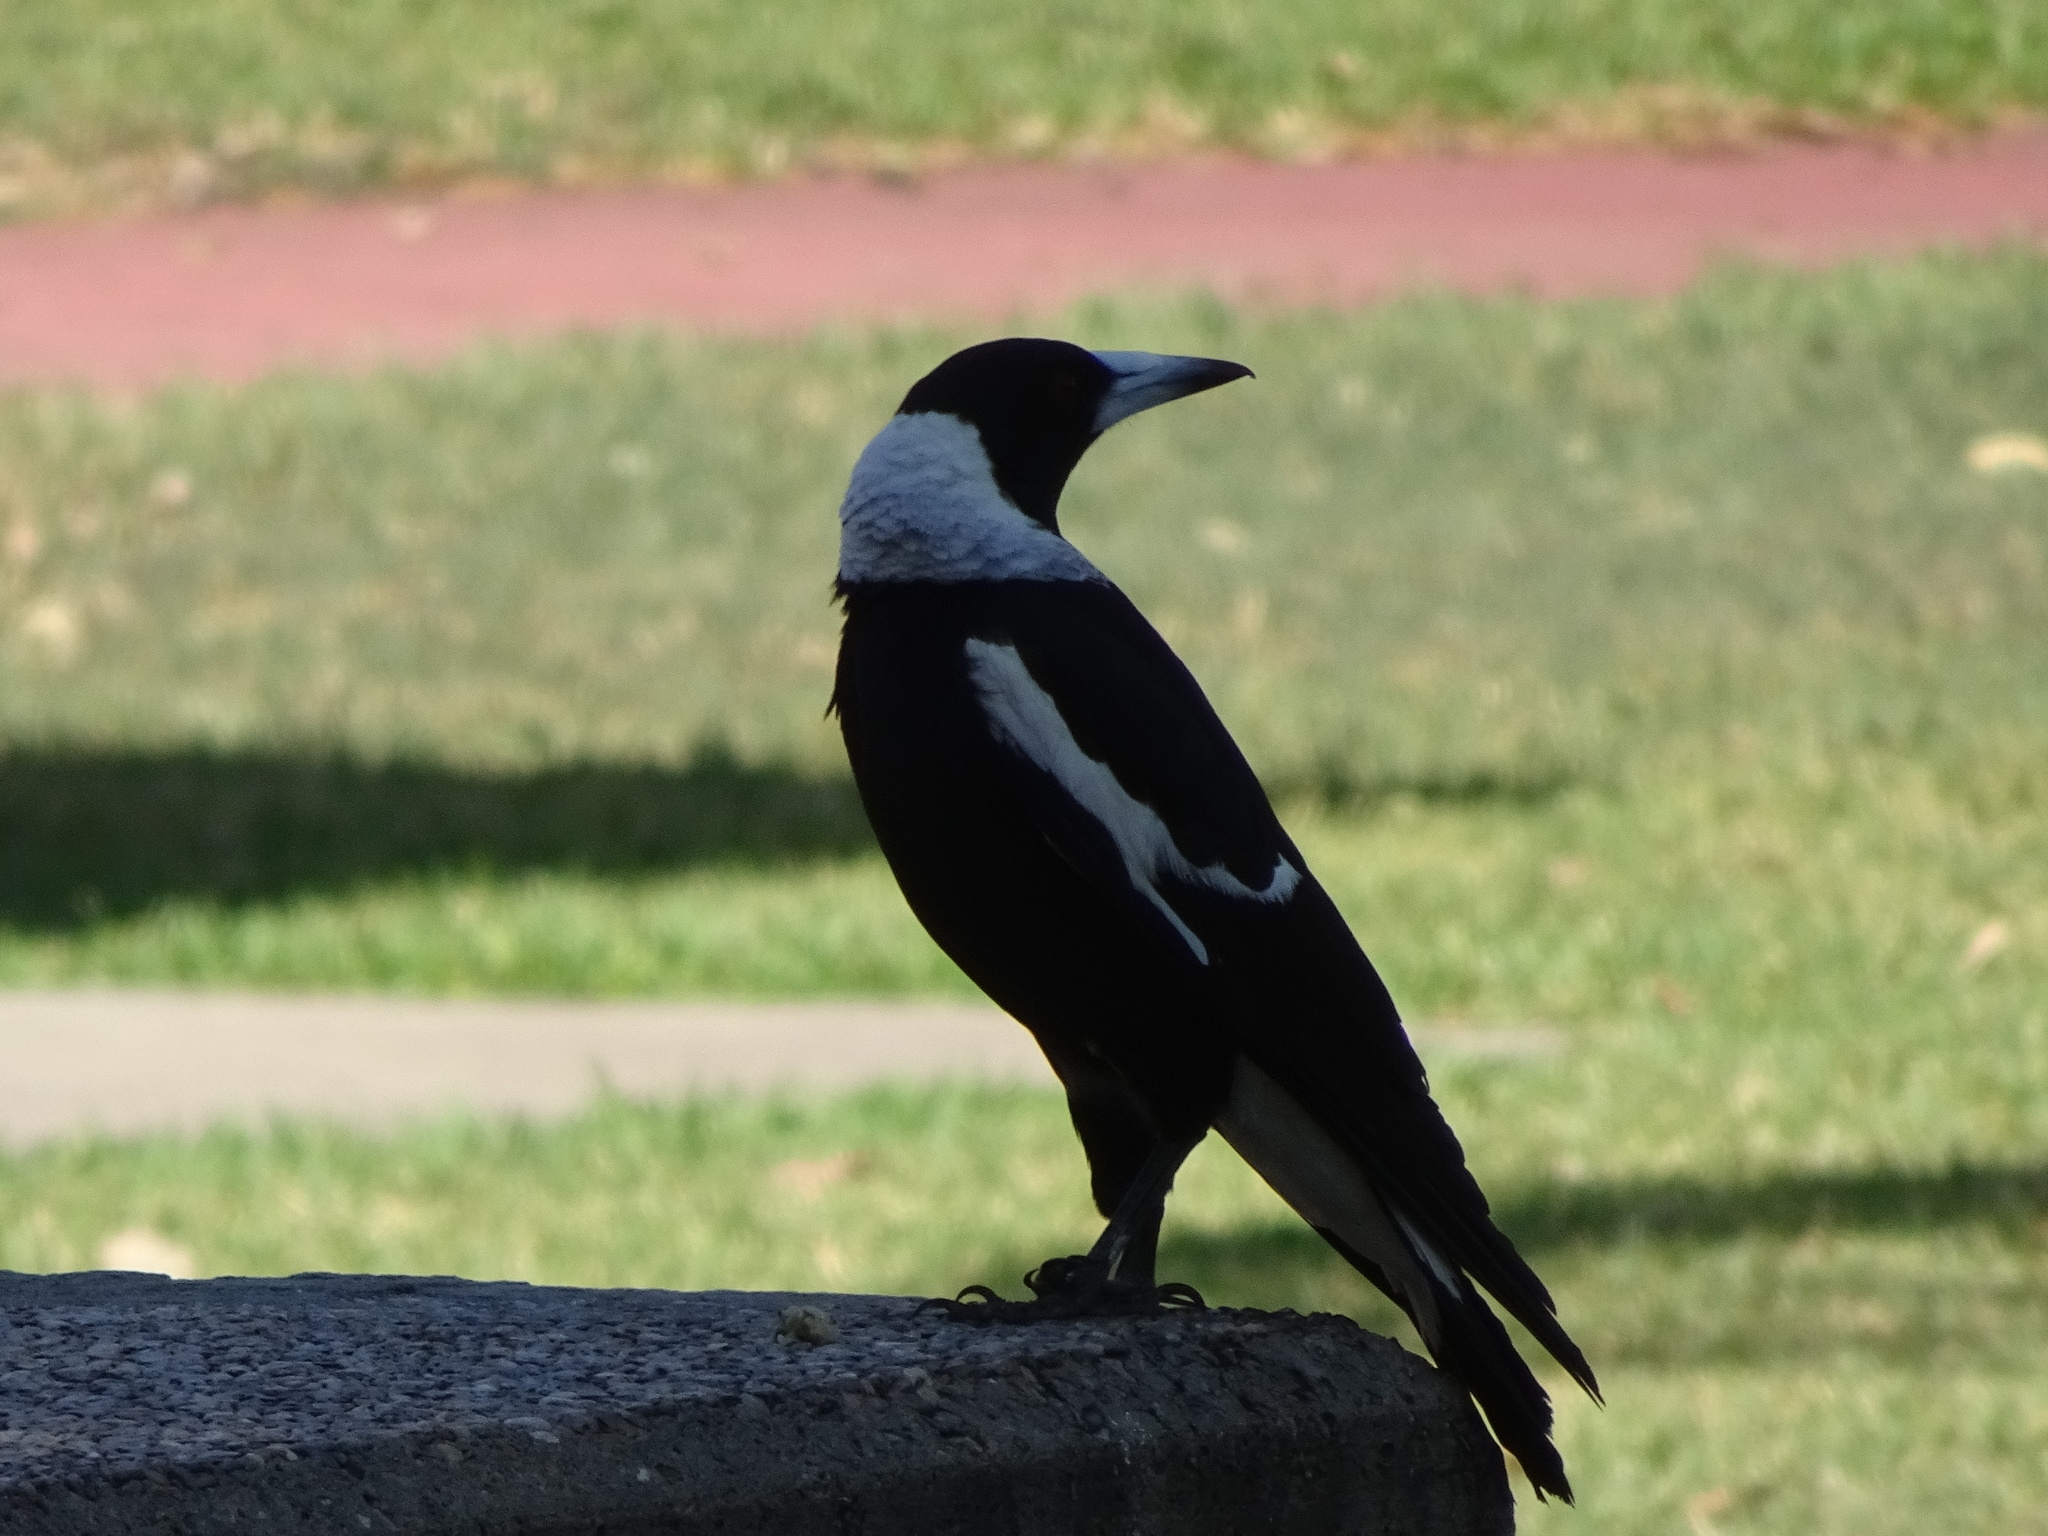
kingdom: Animalia
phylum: Chordata
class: Aves
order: Passeriformes
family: Cracticidae
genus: Gymnorhina
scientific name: Gymnorhina tibicen
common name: Australian magpie
